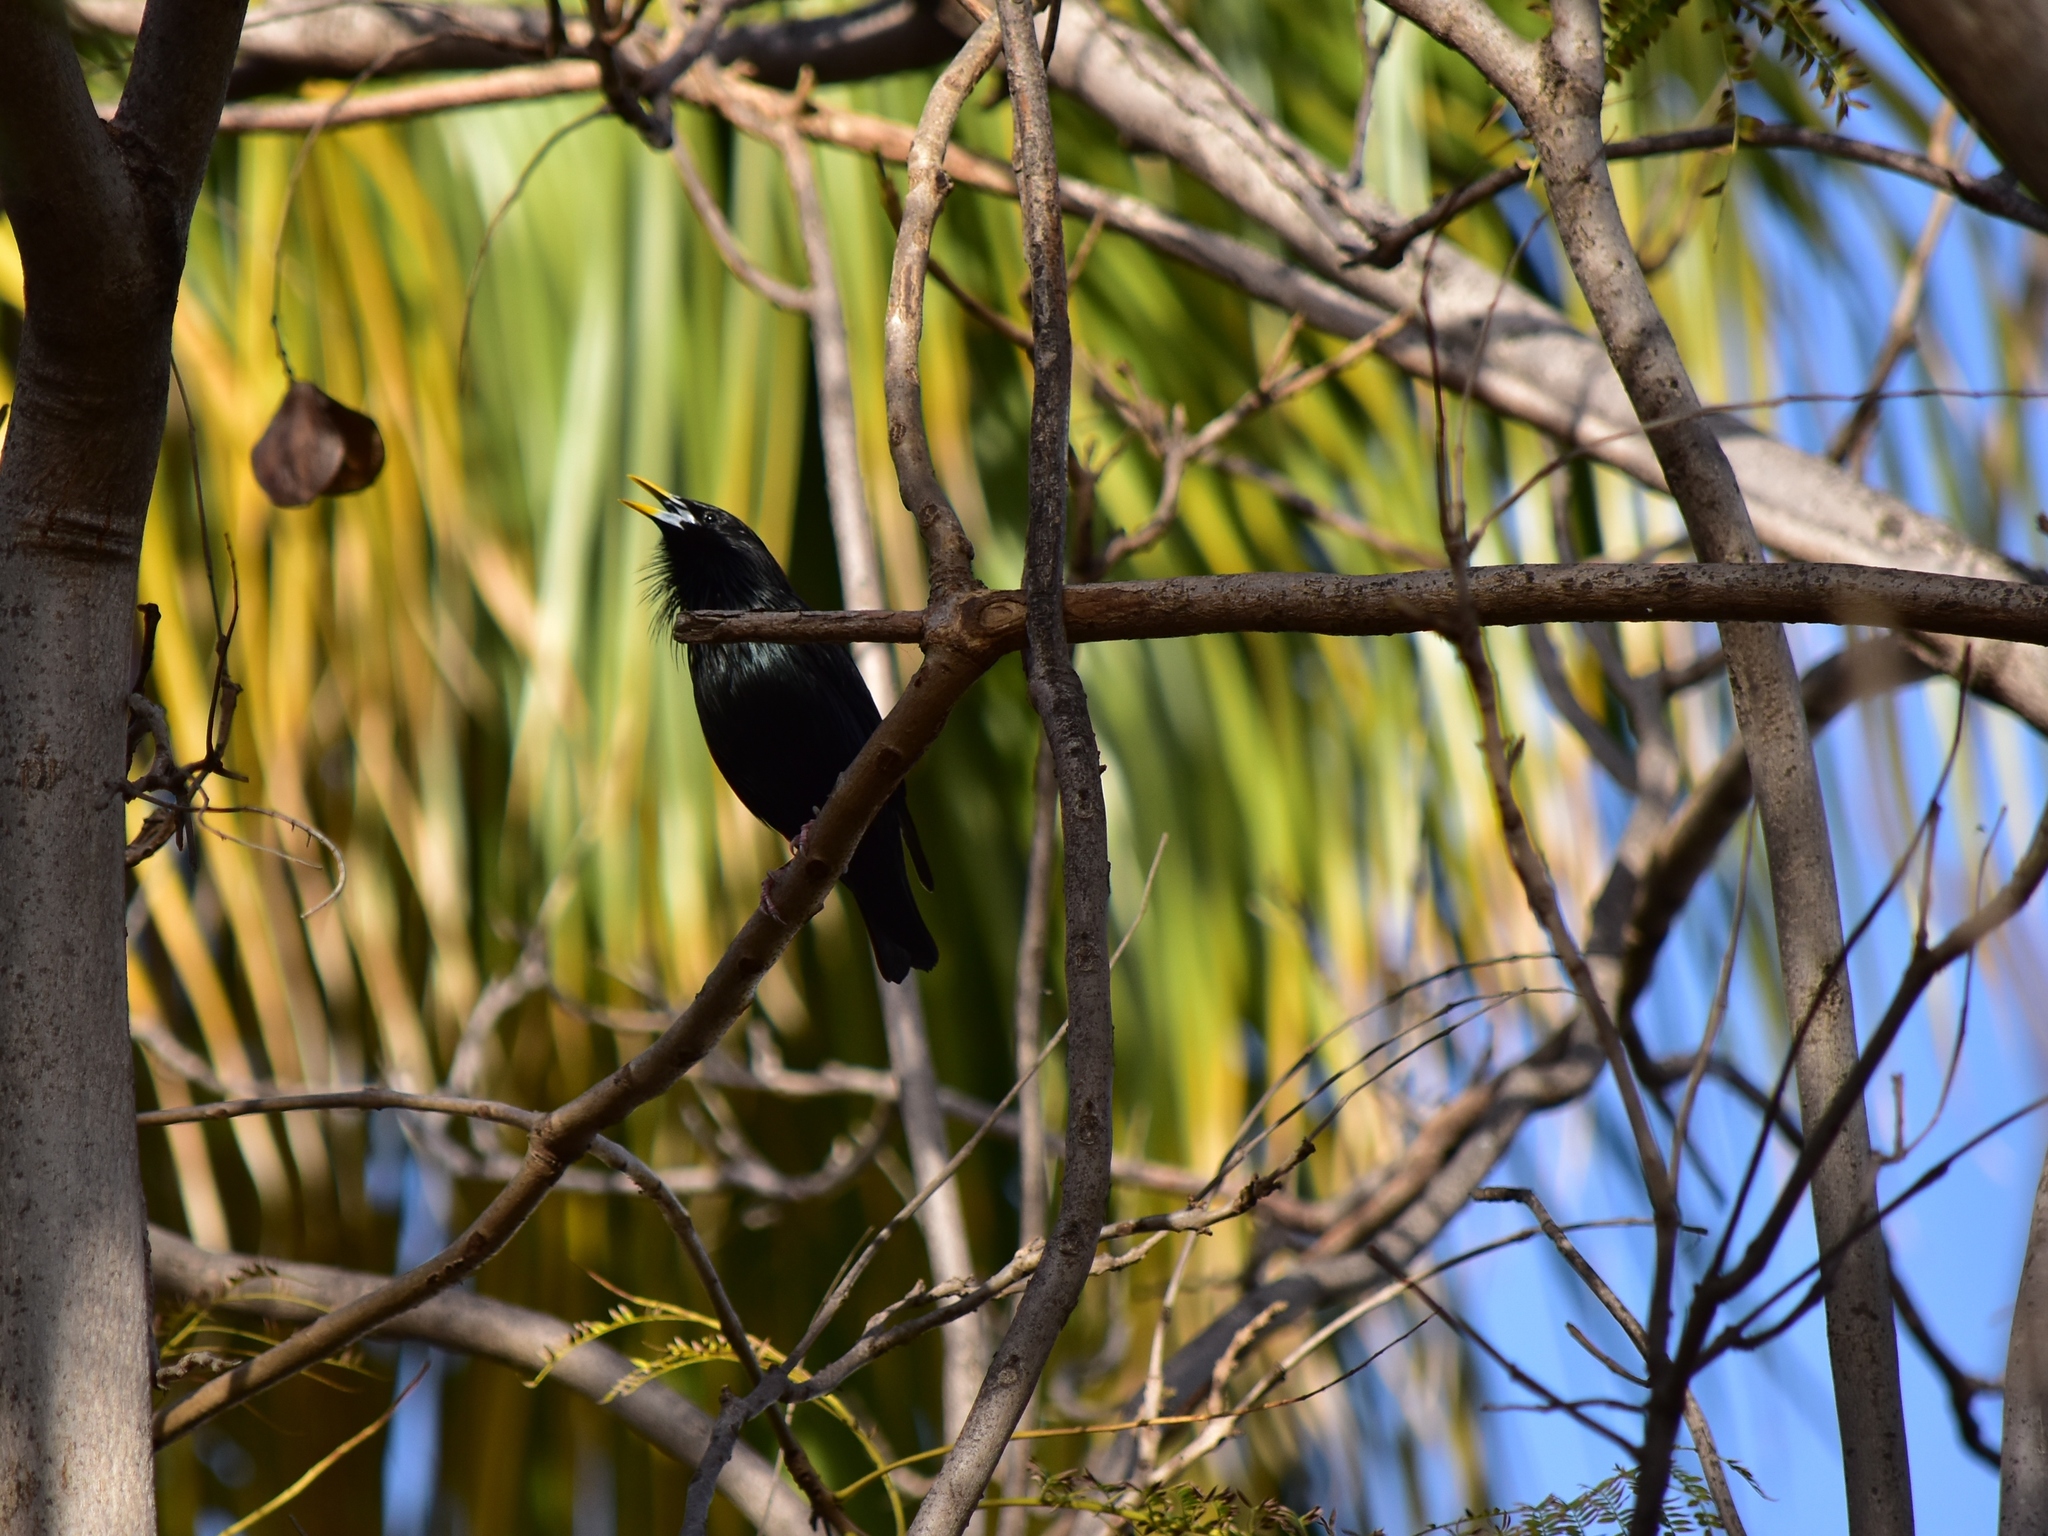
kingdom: Animalia
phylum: Chordata
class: Aves
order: Passeriformes
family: Sturnidae
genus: Sturnus
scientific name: Sturnus unicolor
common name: Spotless starling
